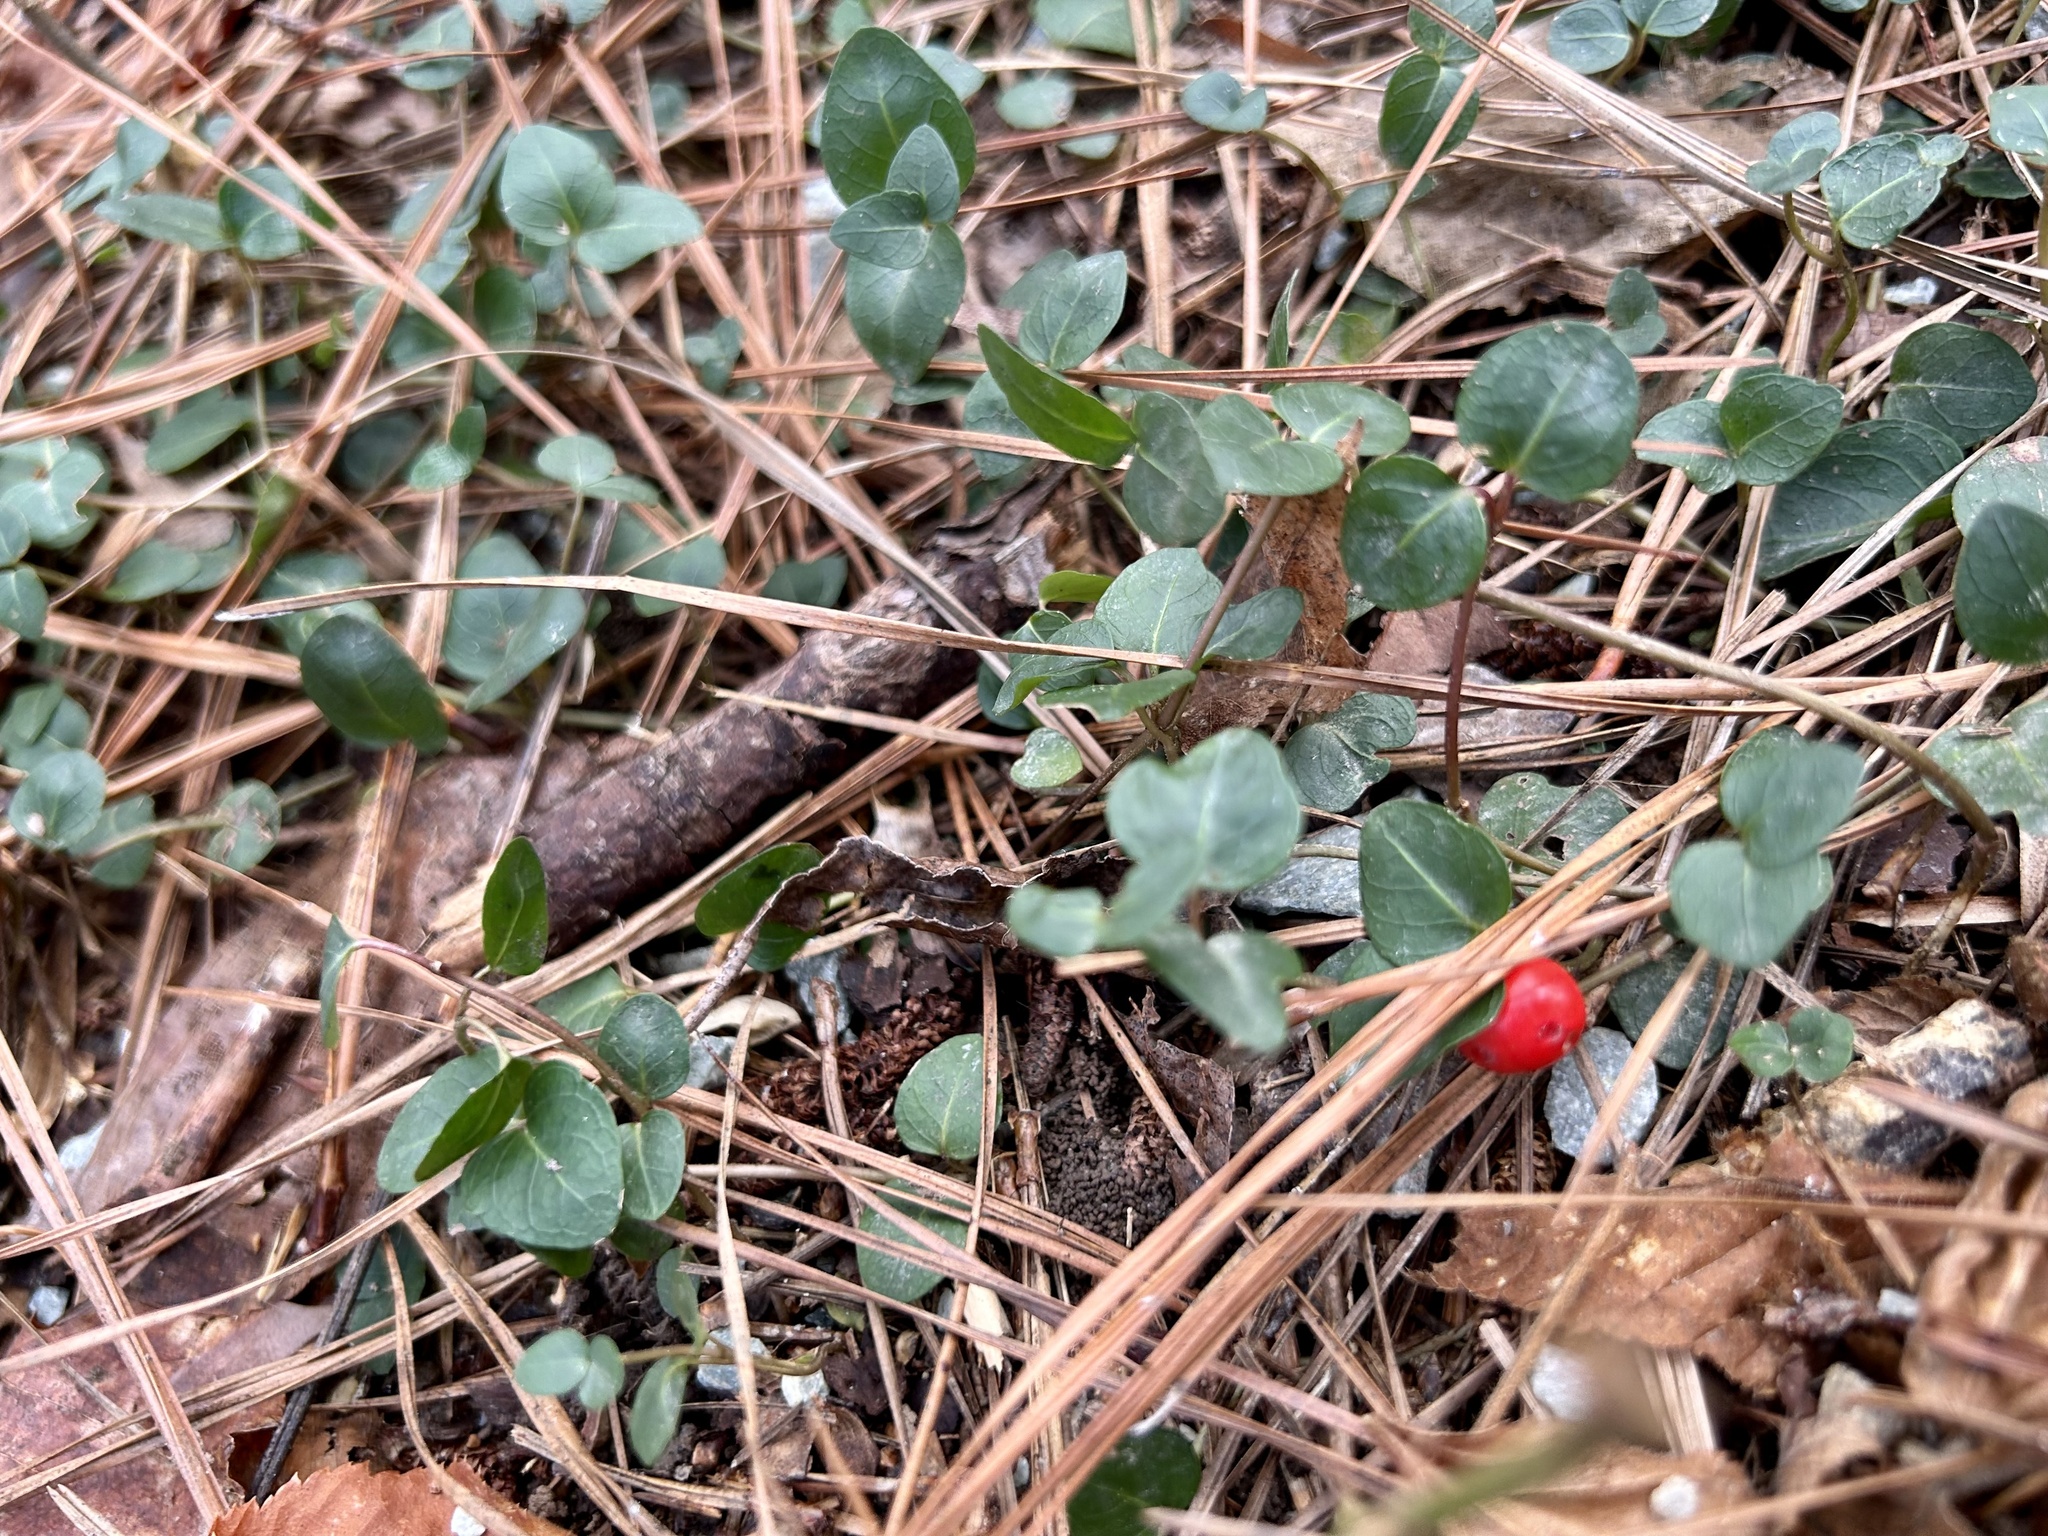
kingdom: Plantae
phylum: Tracheophyta
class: Magnoliopsida
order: Gentianales
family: Rubiaceae
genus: Mitchella
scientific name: Mitchella repens
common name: Partridge-berry
